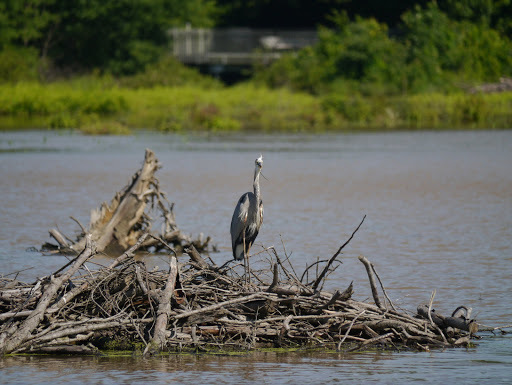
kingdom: Animalia
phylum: Chordata
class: Aves
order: Pelecaniformes
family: Ardeidae
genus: Ardea
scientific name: Ardea herodias
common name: Great blue heron
